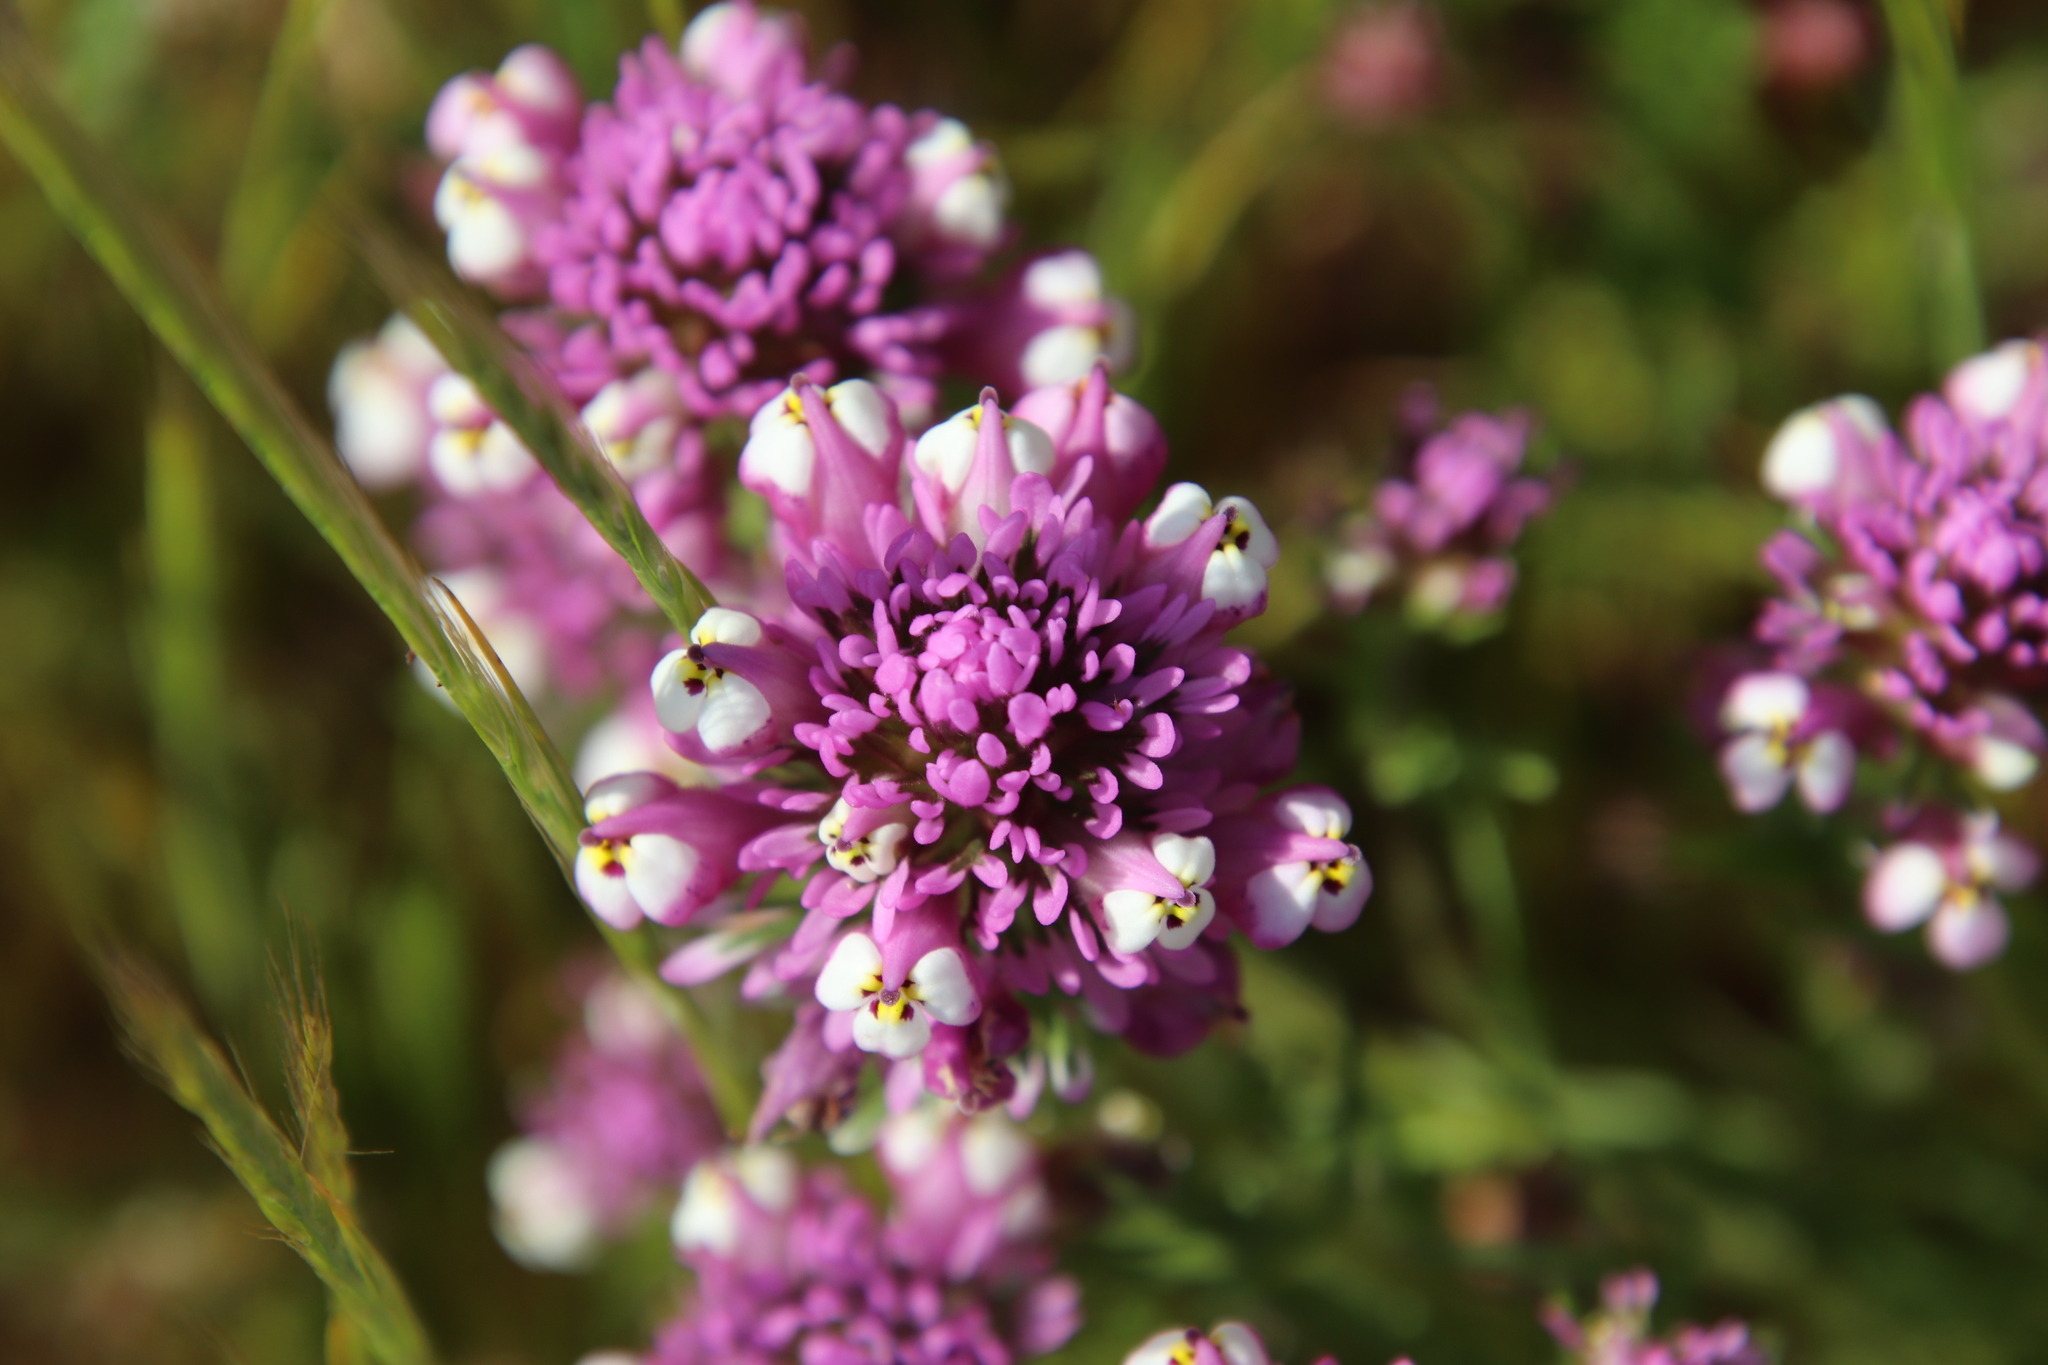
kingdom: Plantae
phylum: Tracheophyta
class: Magnoliopsida
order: Lamiales
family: Orobanchaceae
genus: Castilleja
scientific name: Castilleja densiflora
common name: Dense-flower indian paintbrush
